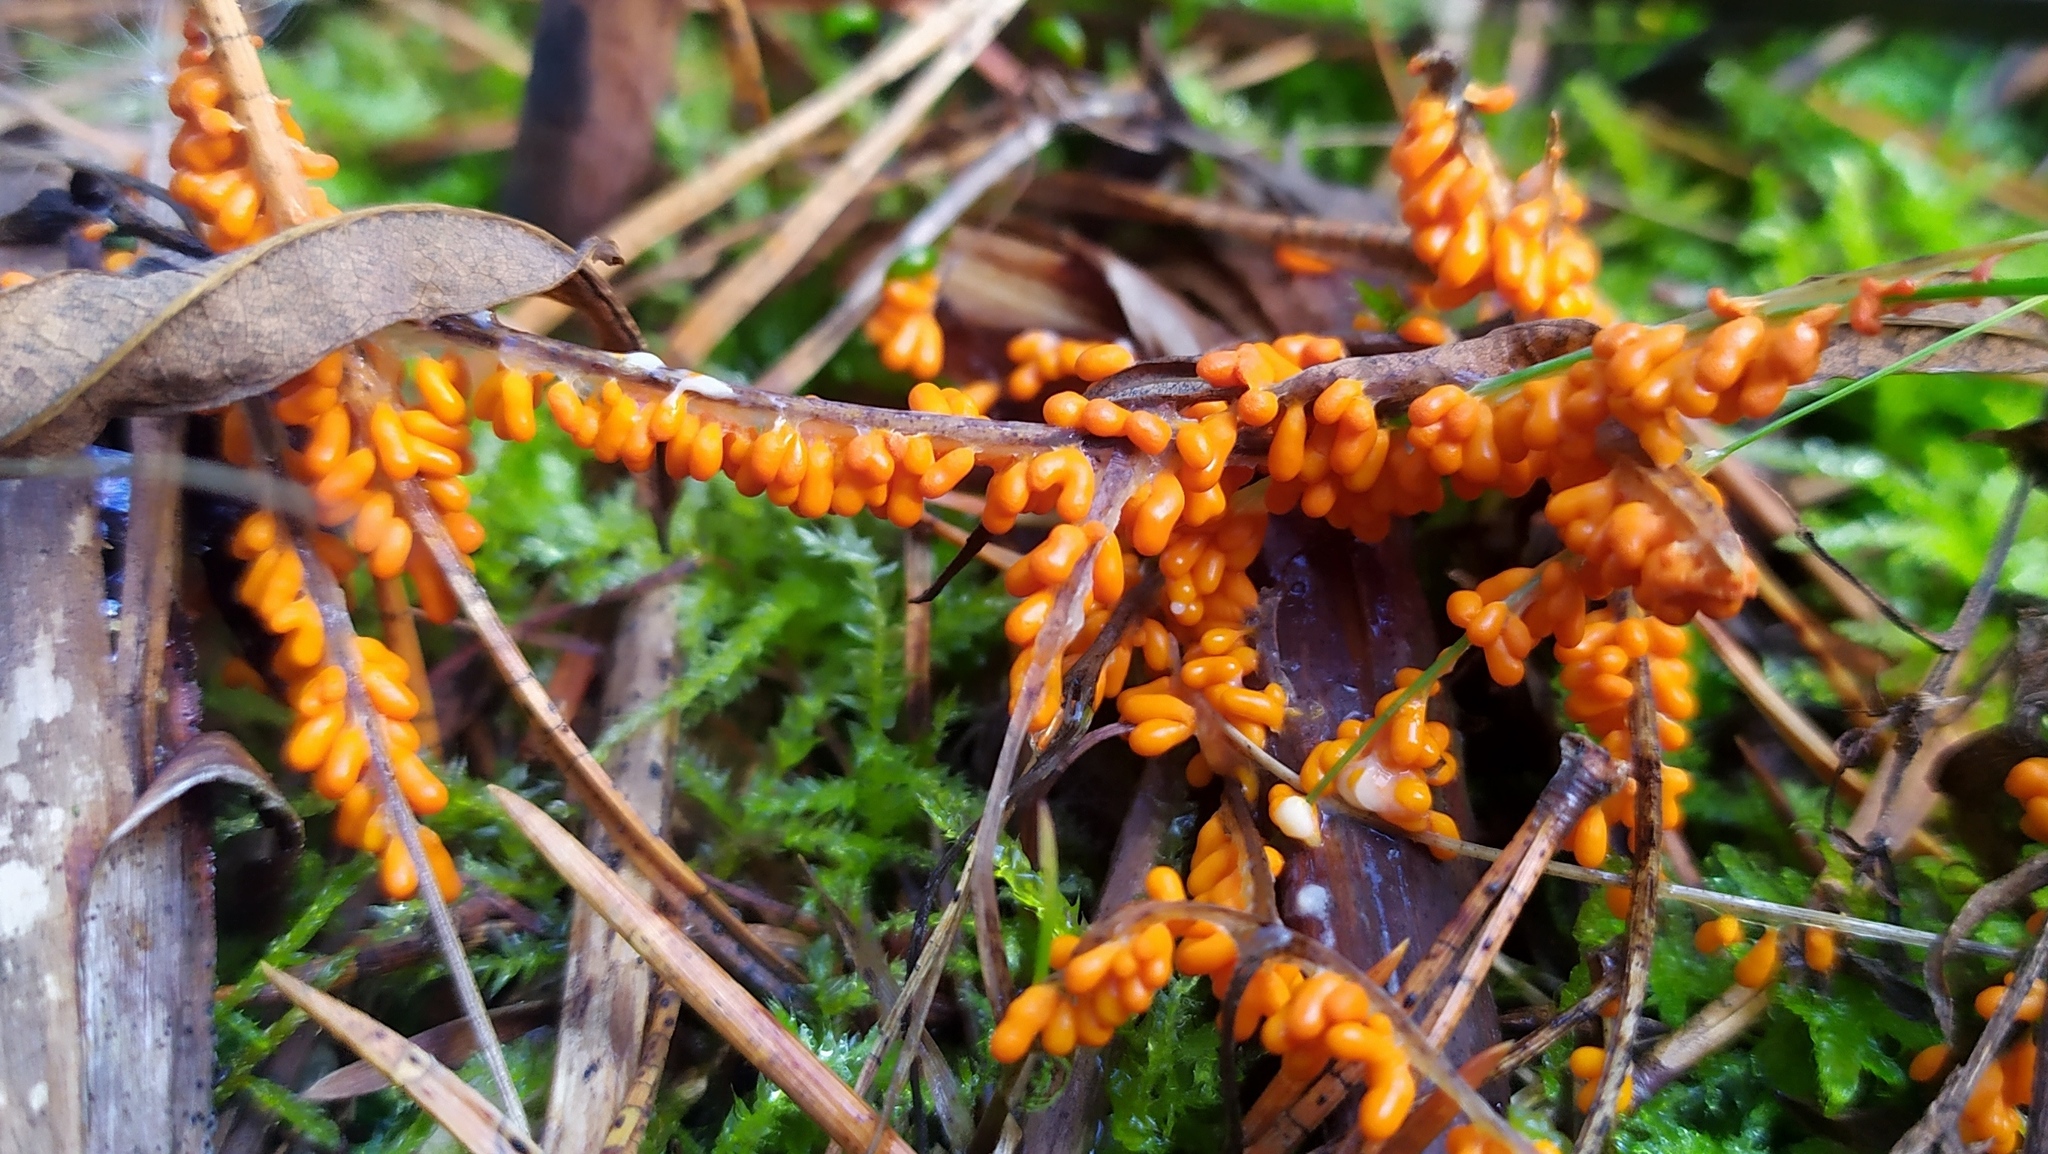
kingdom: Protozoa
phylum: Mycetozoa
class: Myxomycetes
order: Physarales
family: Physaraceae
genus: Leocarpus
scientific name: Leocarpus fragilis
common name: Insect-egg slime
